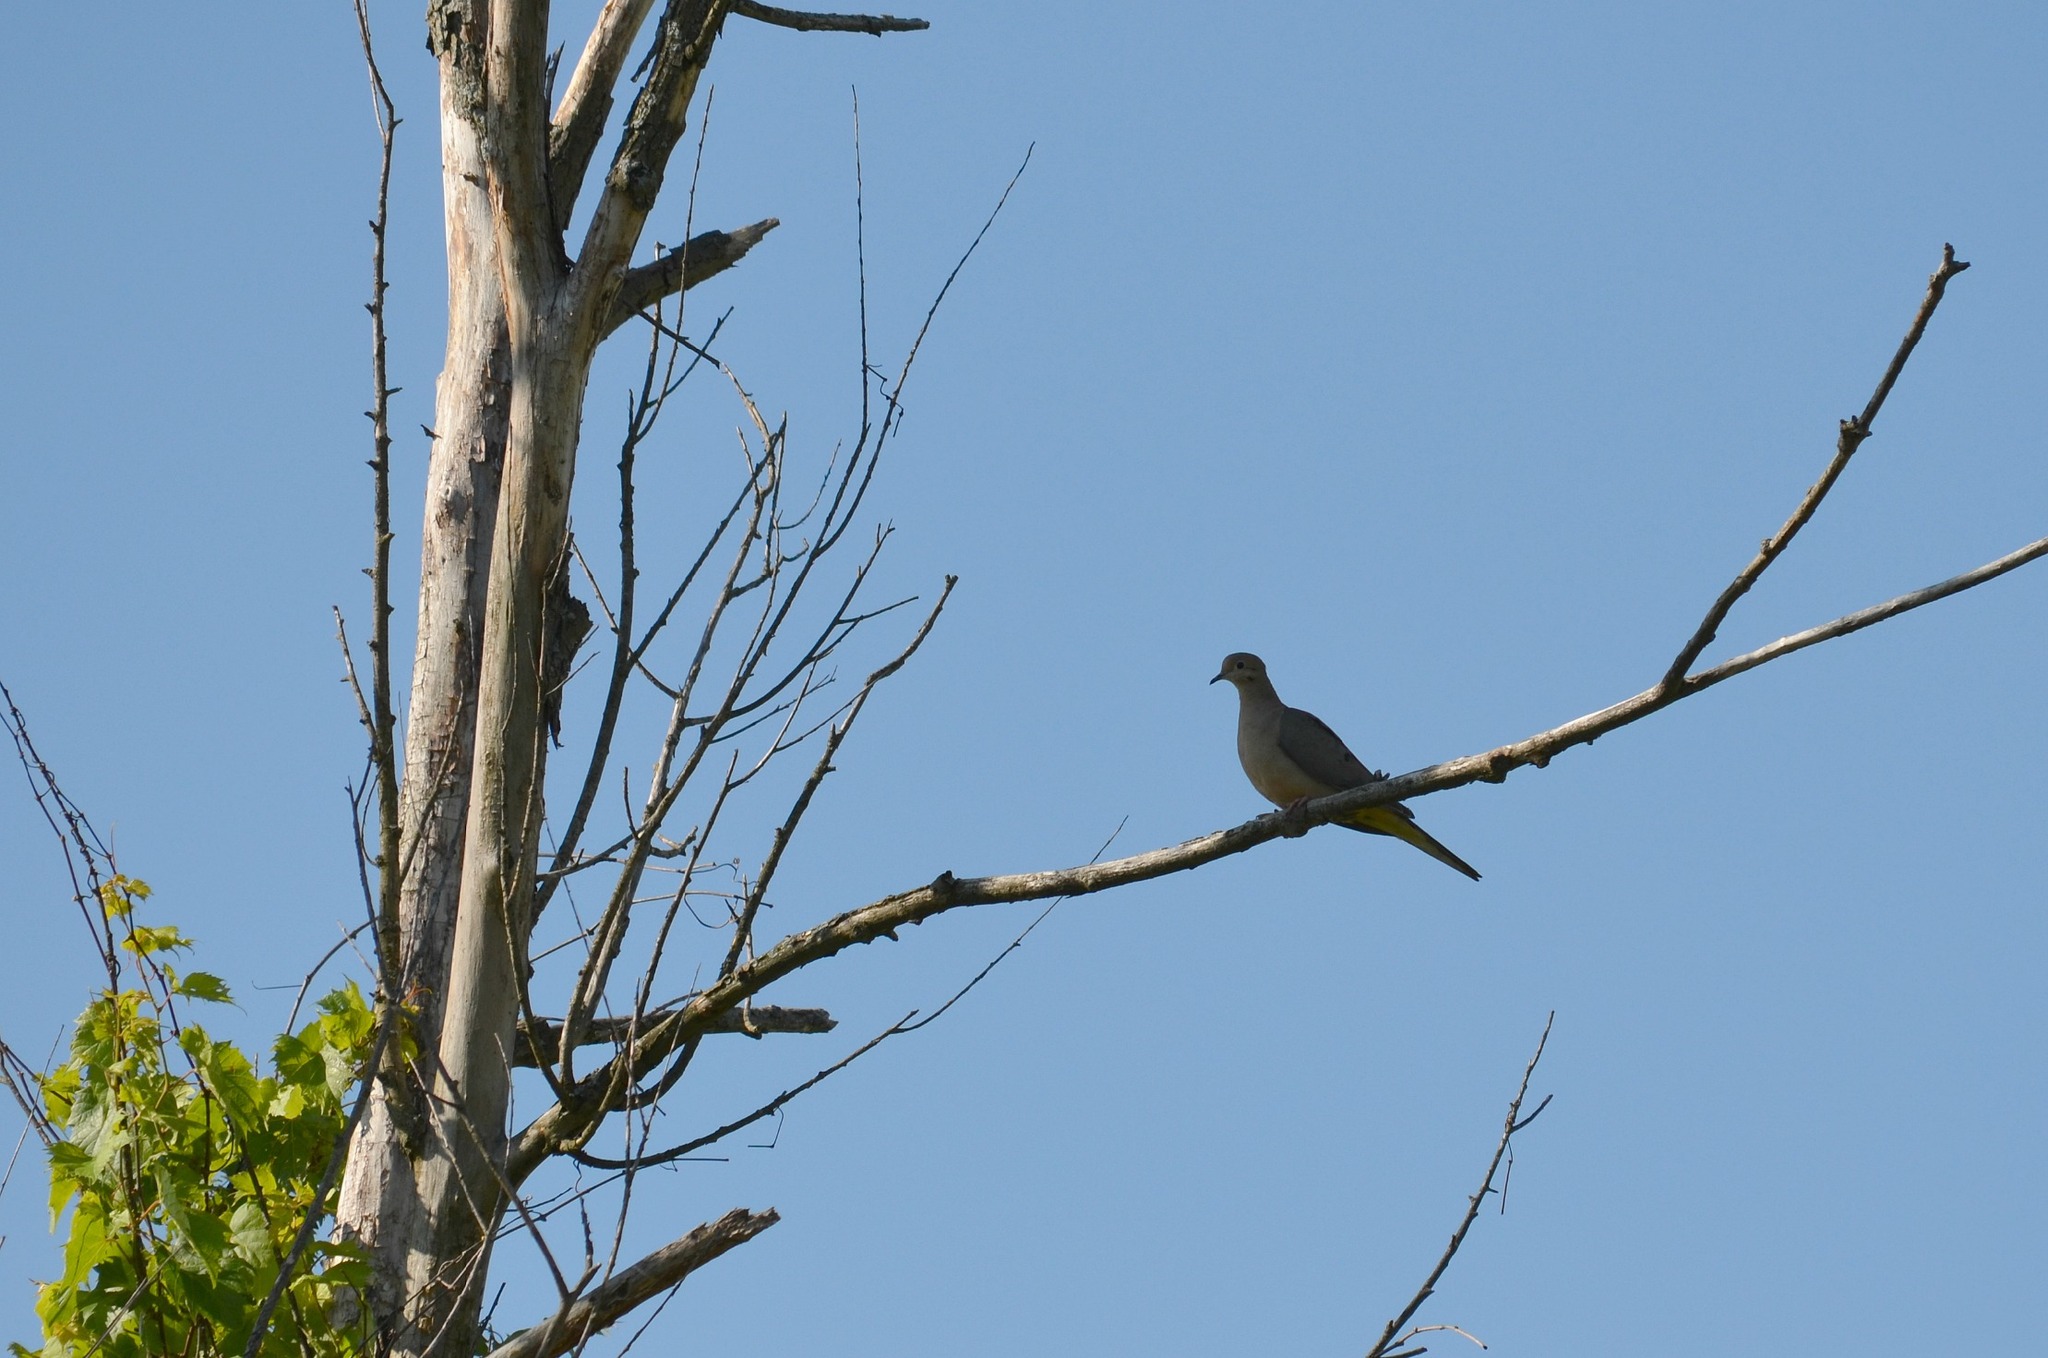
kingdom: Animalia
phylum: Chordata
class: Aves
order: Columbiformes
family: Columbidae
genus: Zenaida
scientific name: Zenaida macroura
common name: Mourning dove
